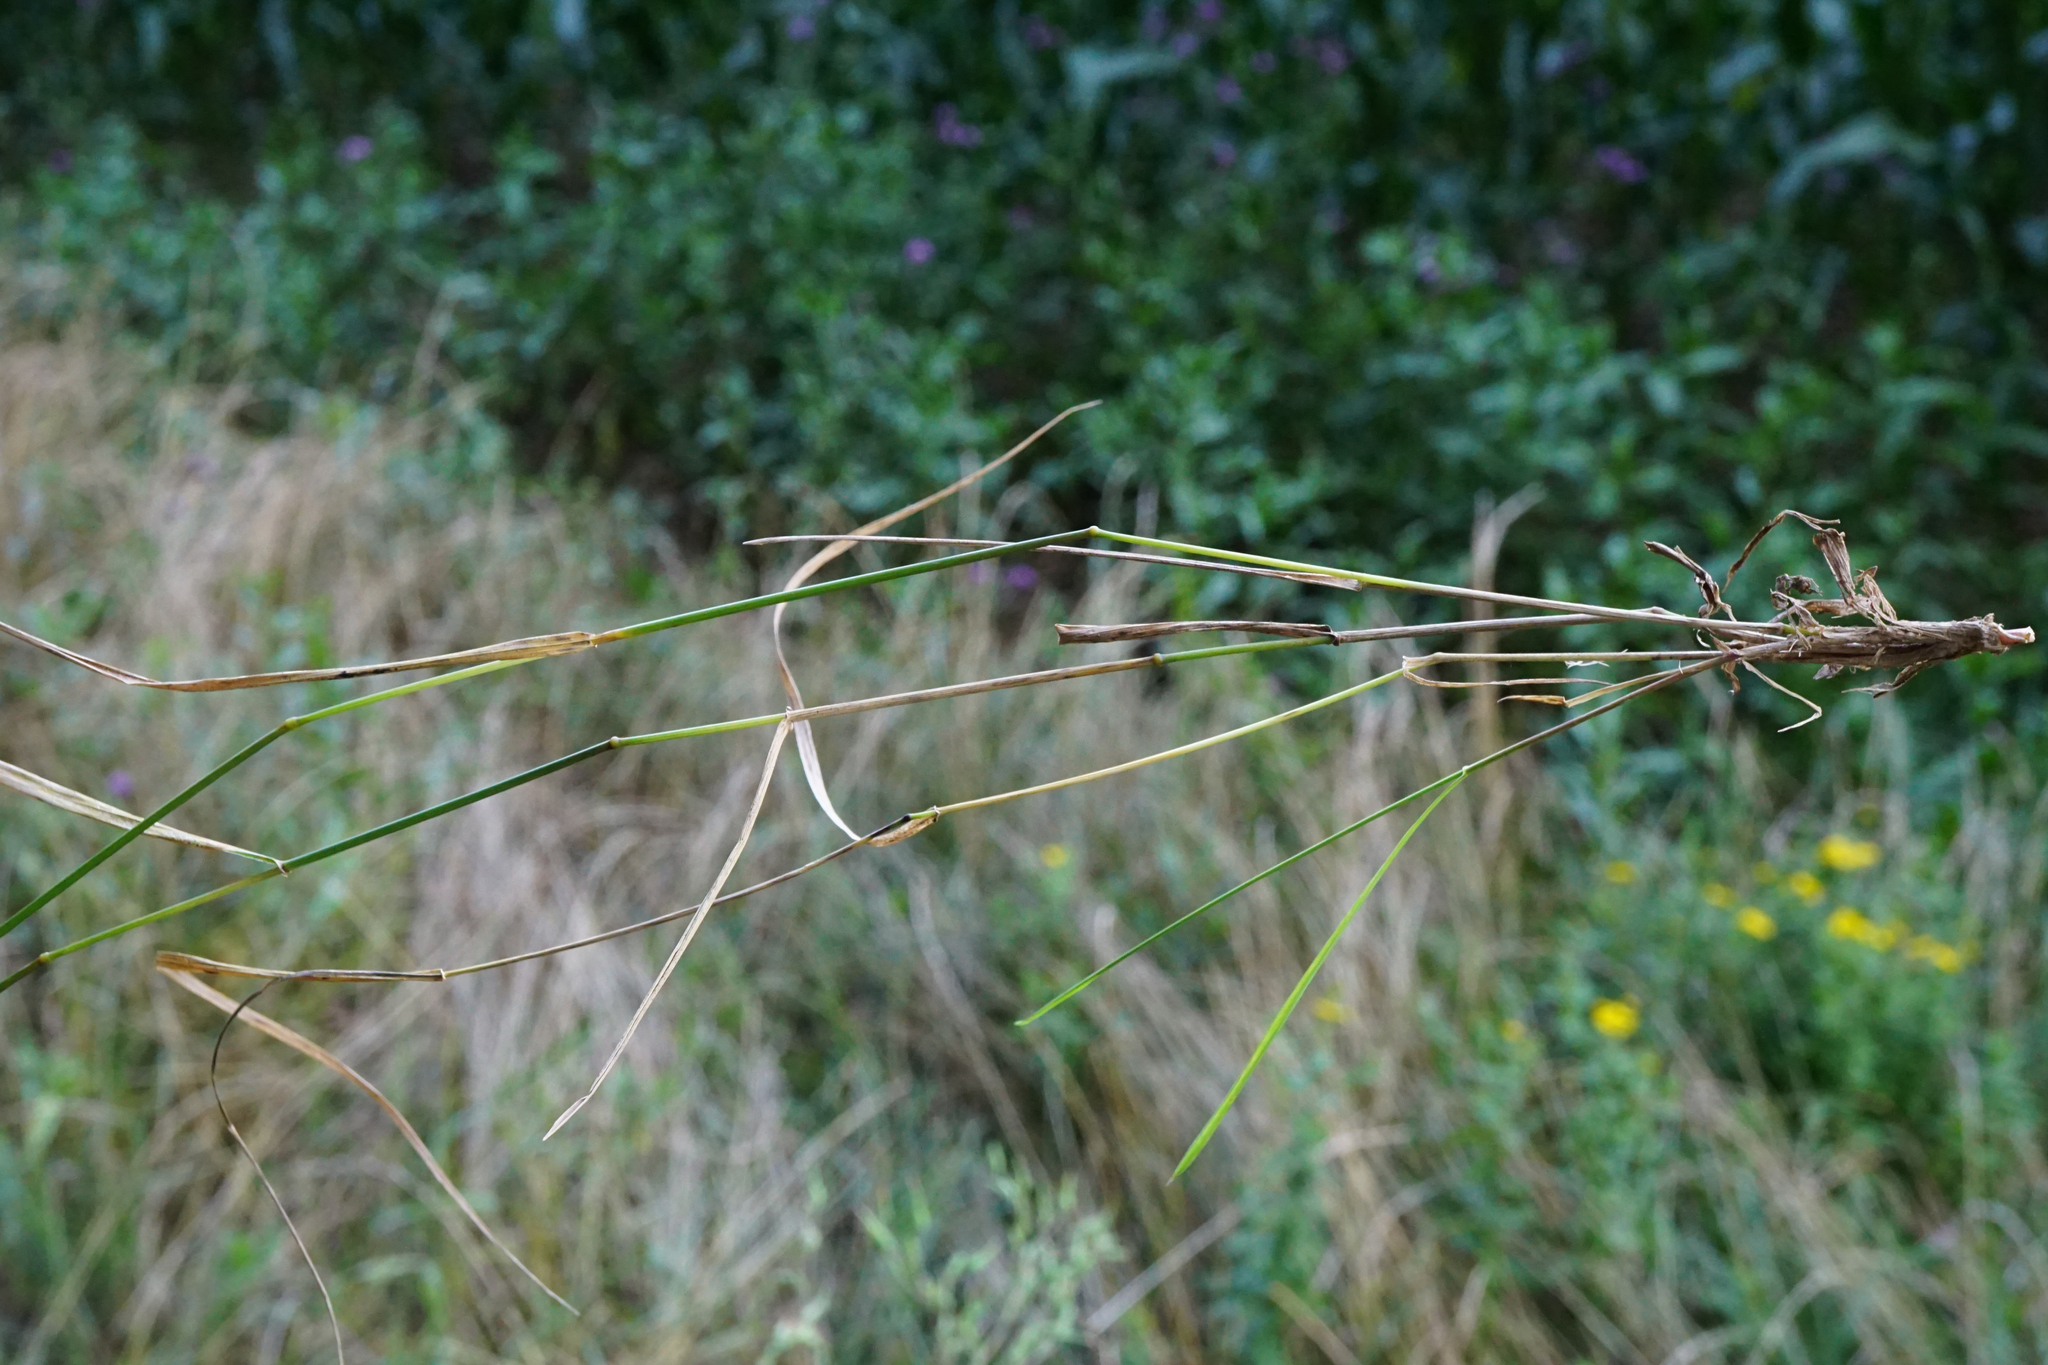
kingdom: Plantae
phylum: Tracheophyta
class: Liliopsida
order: Poales
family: Poaceae
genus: Elymus
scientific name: Elymus repens
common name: Quackgrass
